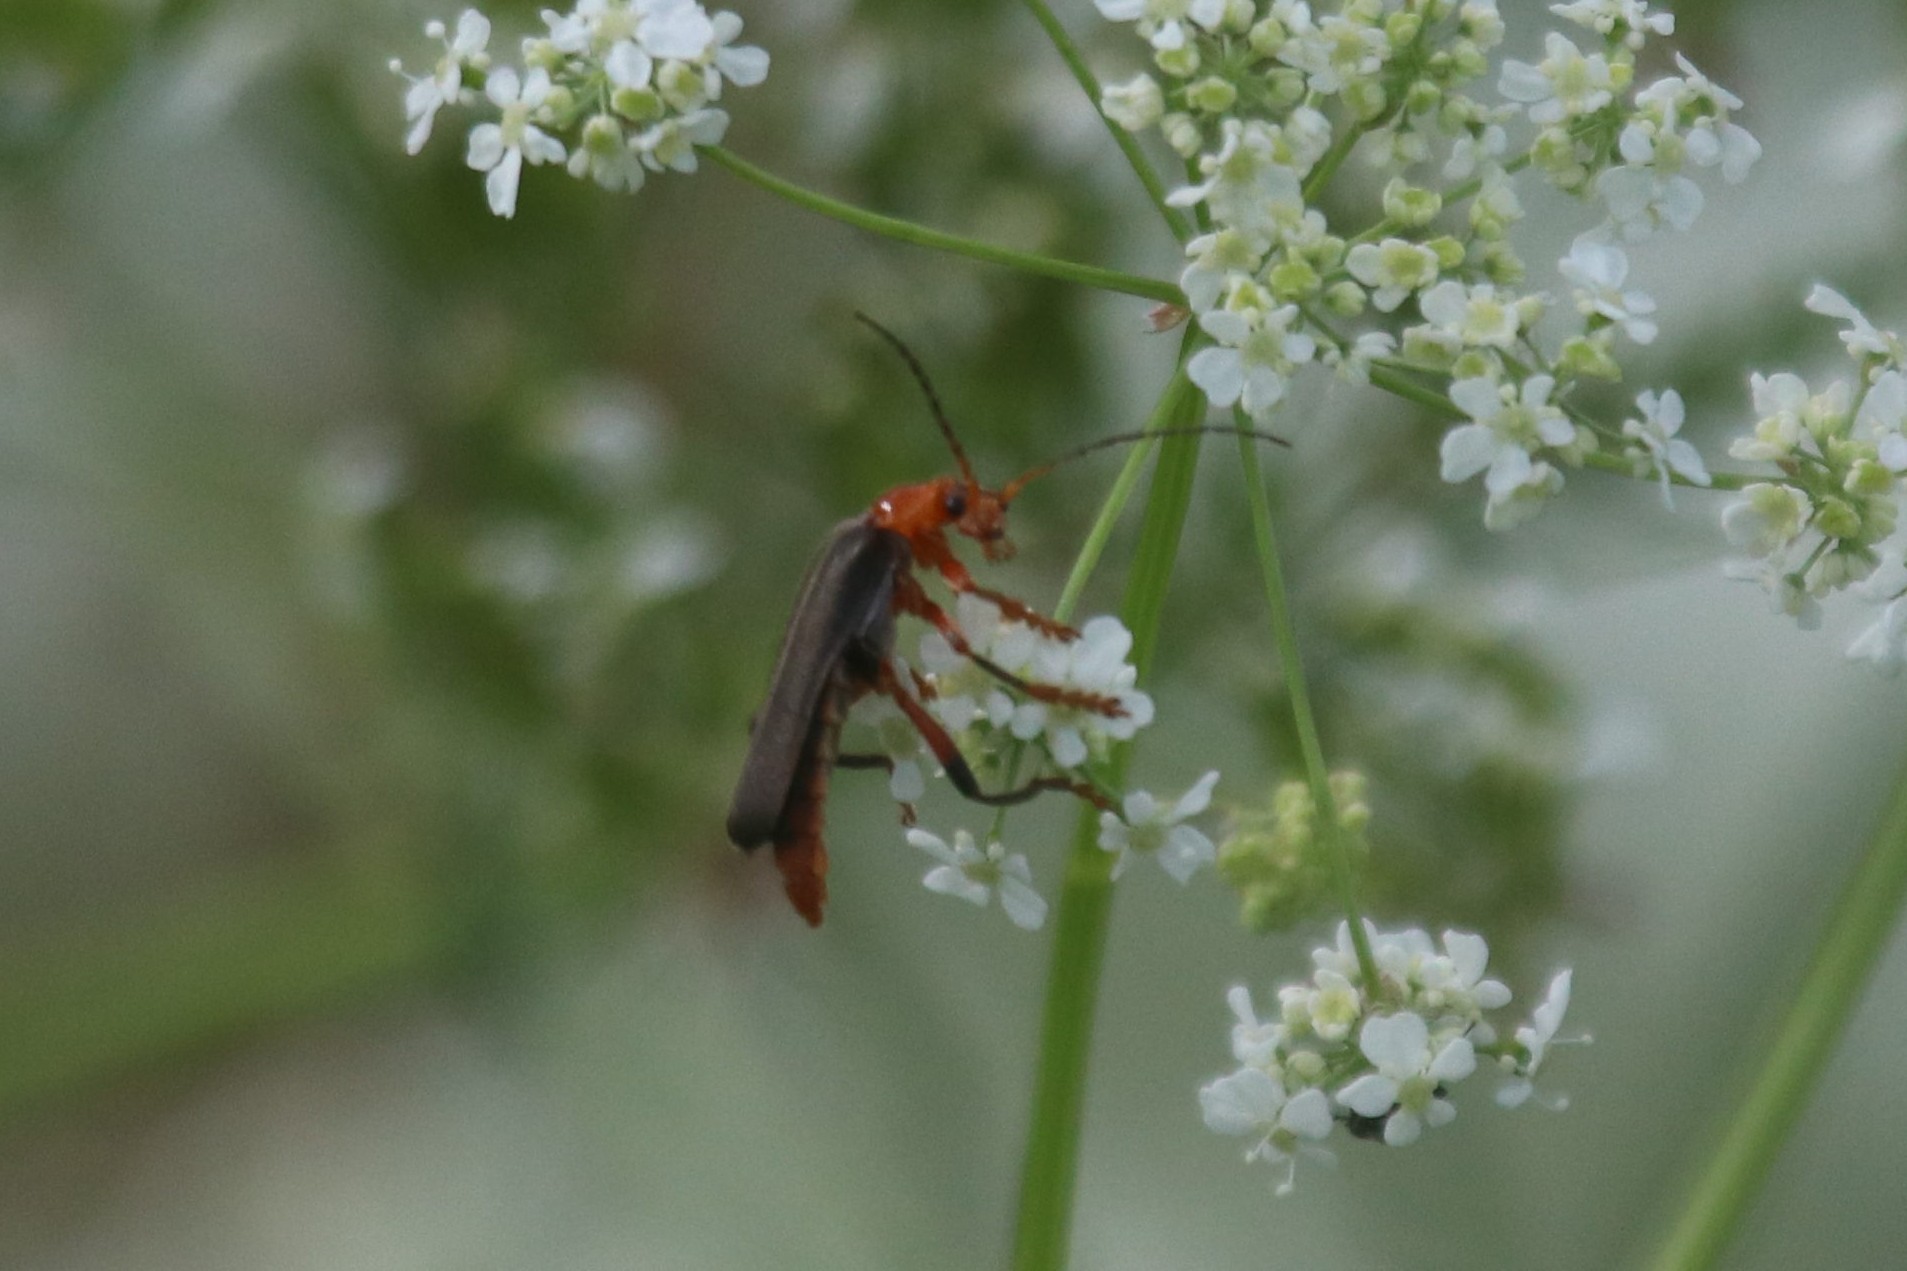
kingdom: Animalia
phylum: Arthropoda
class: Insecta
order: Coleoptera
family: Cantharidae
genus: Cantharis
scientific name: Cantharis livida
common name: Livid soldier beetle
